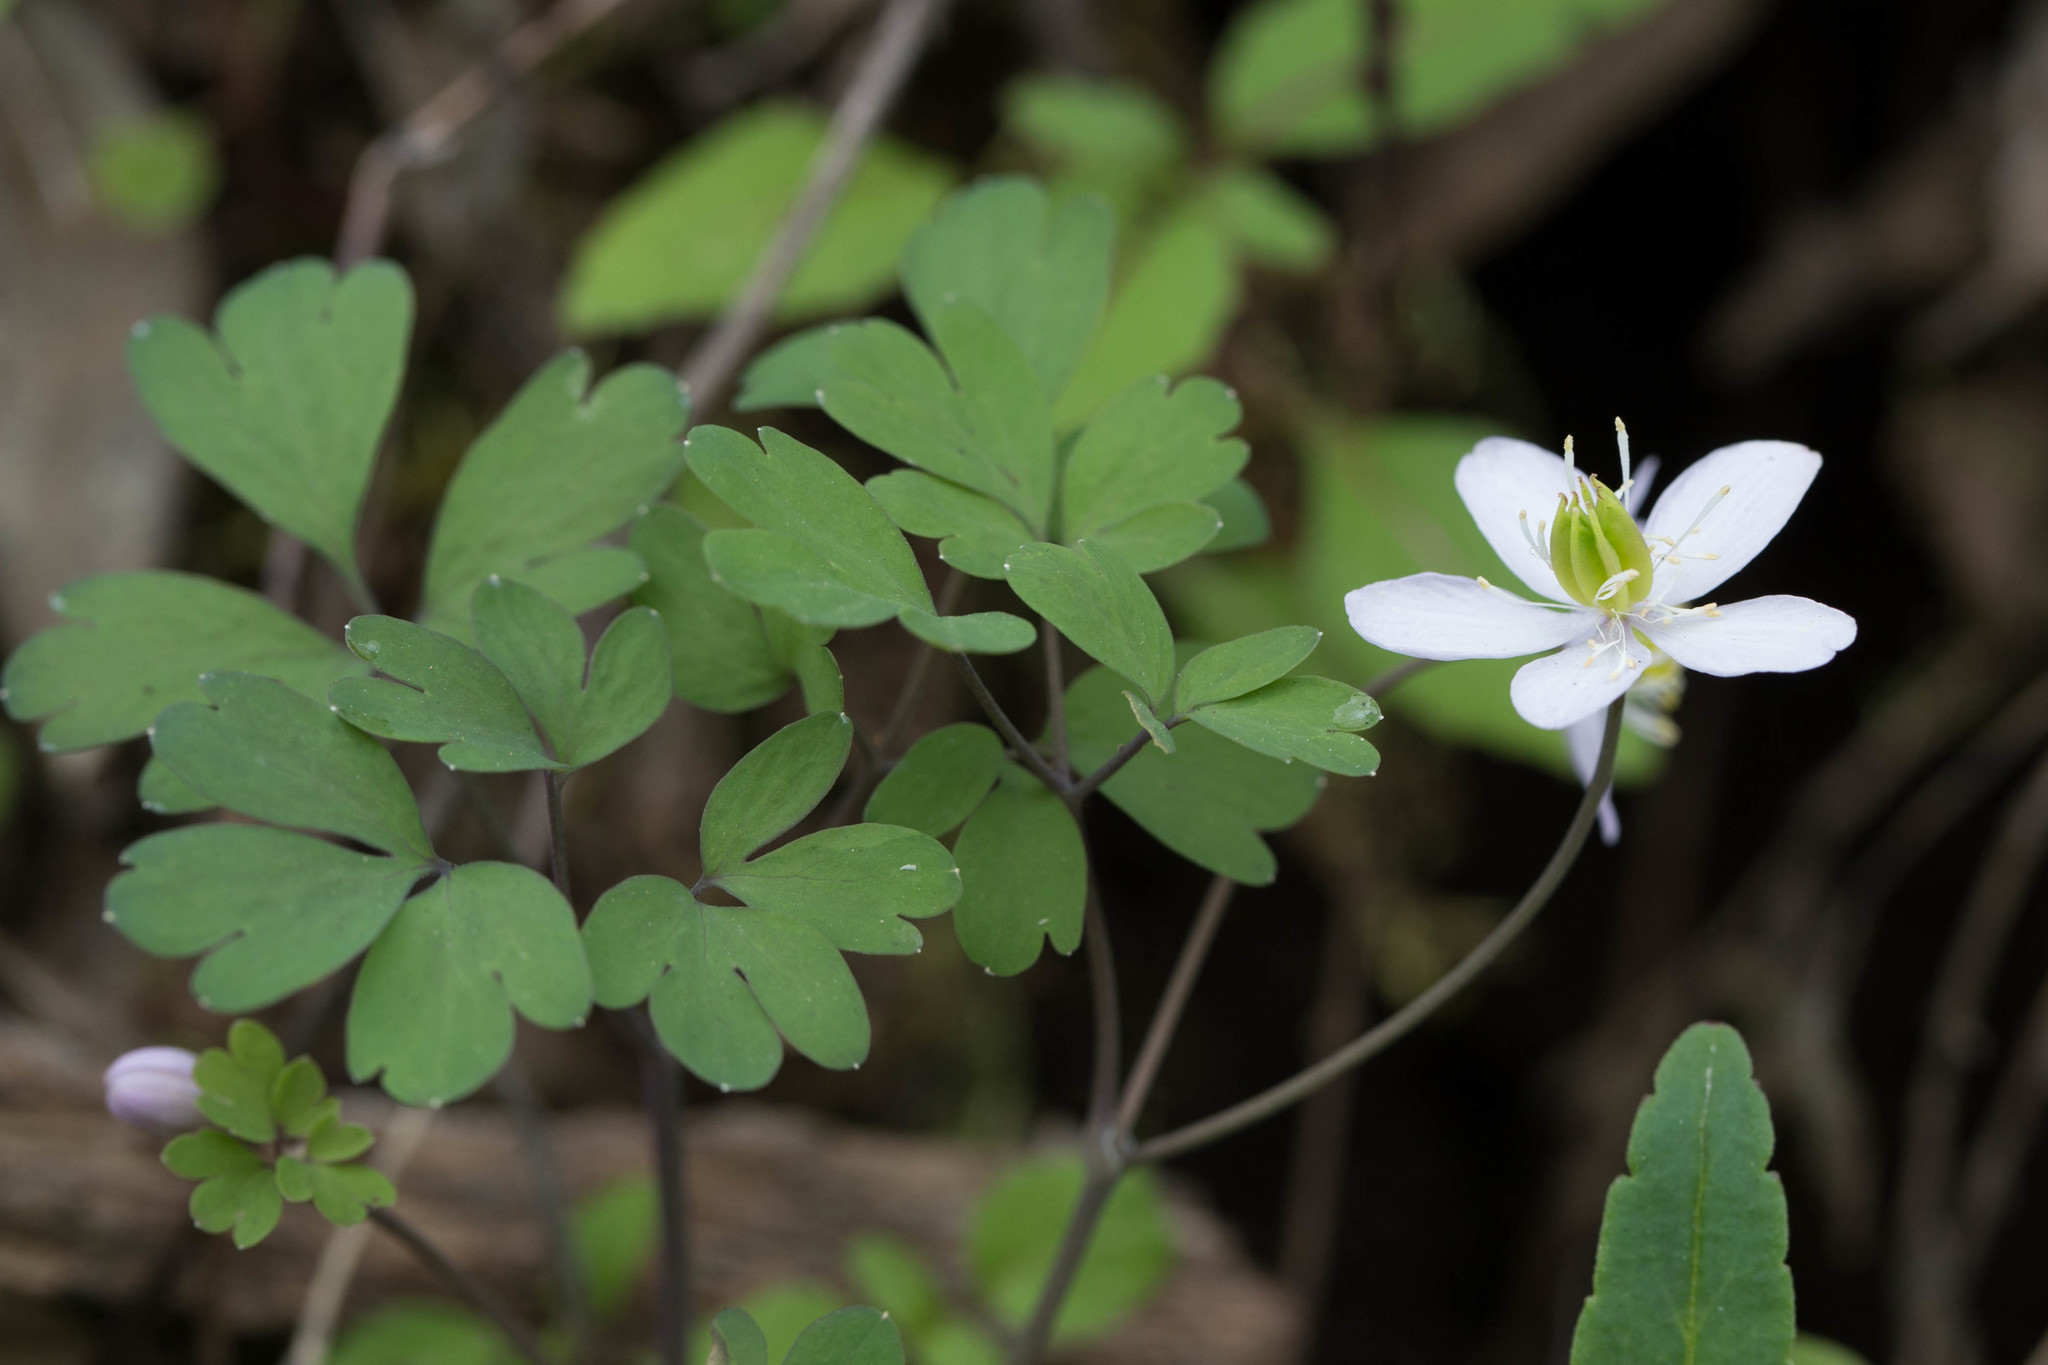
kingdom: Plantae
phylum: Tracheophyta
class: Magnoliopsida
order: Ranunculales
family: Ranunculaceae
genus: Enemion
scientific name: Enemion occidentale
